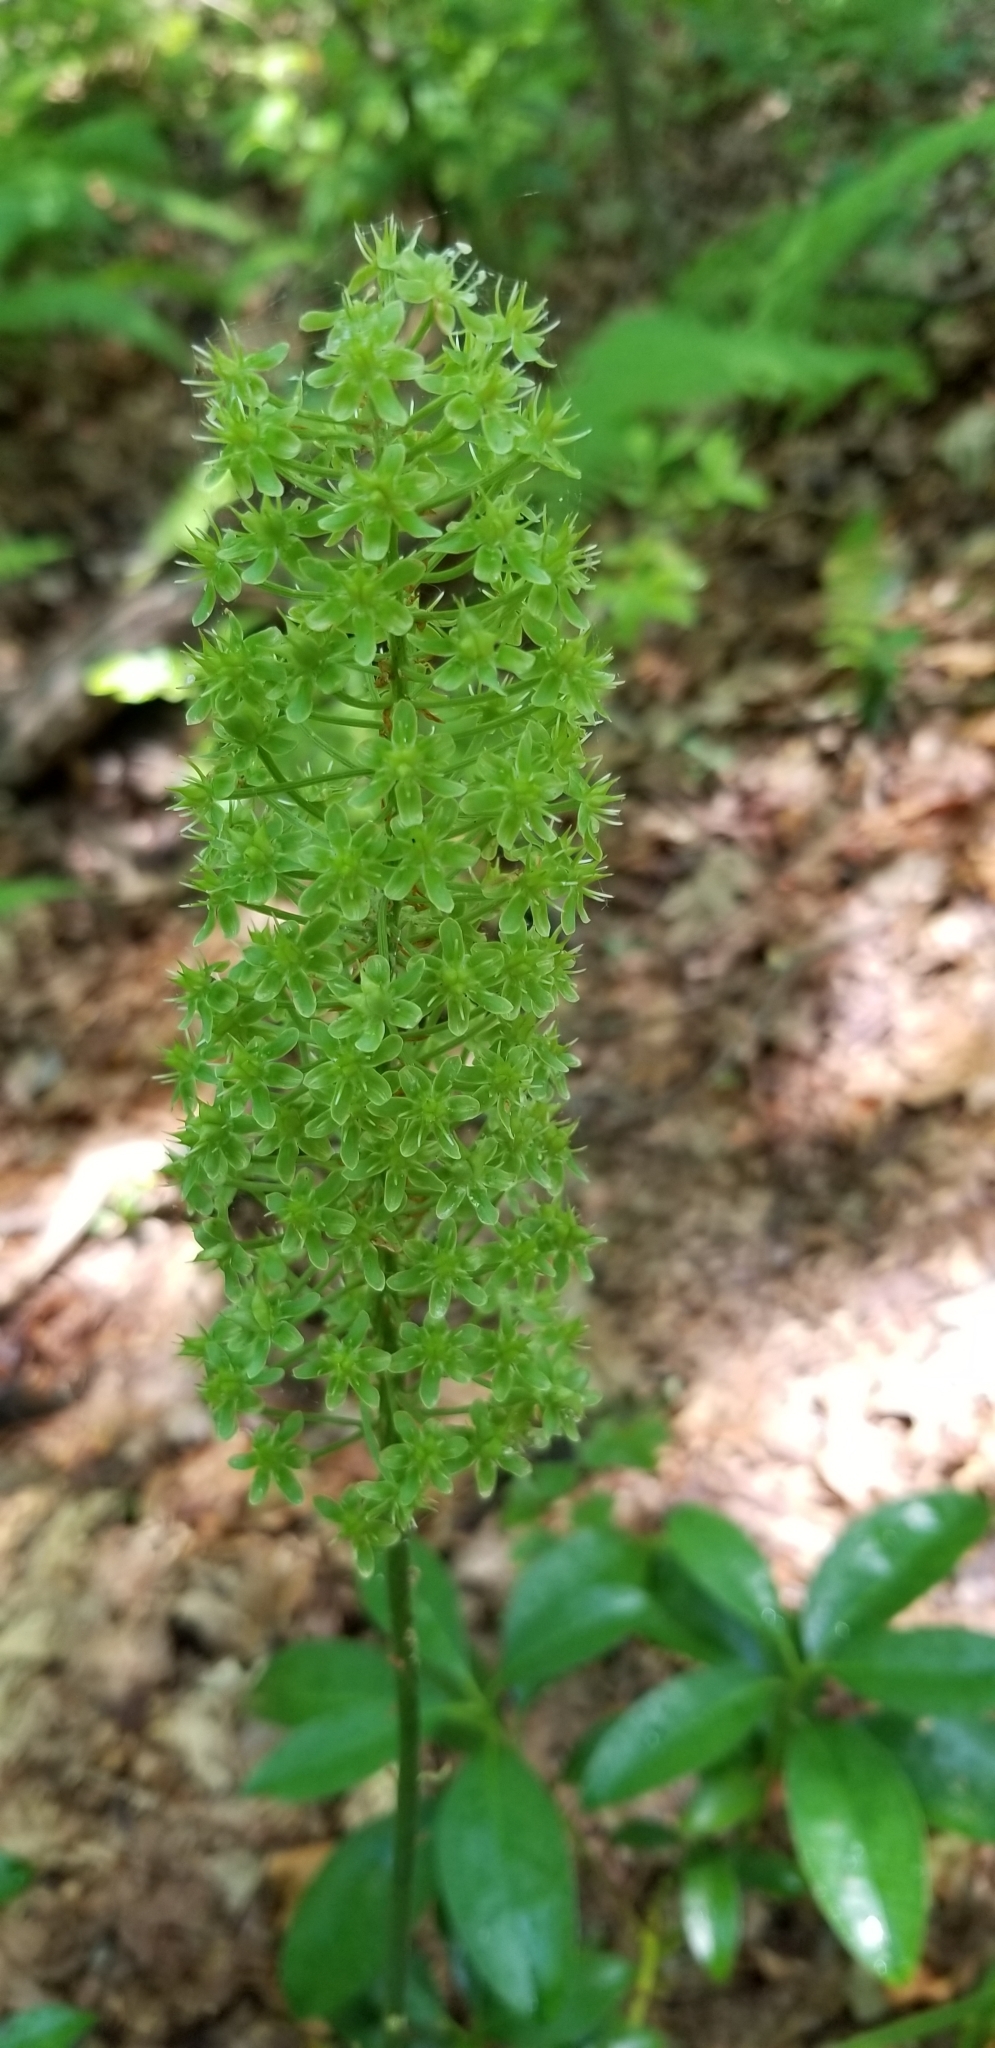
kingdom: Plantae
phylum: Tracheophyta
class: Liliopsida
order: Liliales
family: Melanthiaceae
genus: Amianthium
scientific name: Amianthium muscitoxicum
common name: Fly-poison
